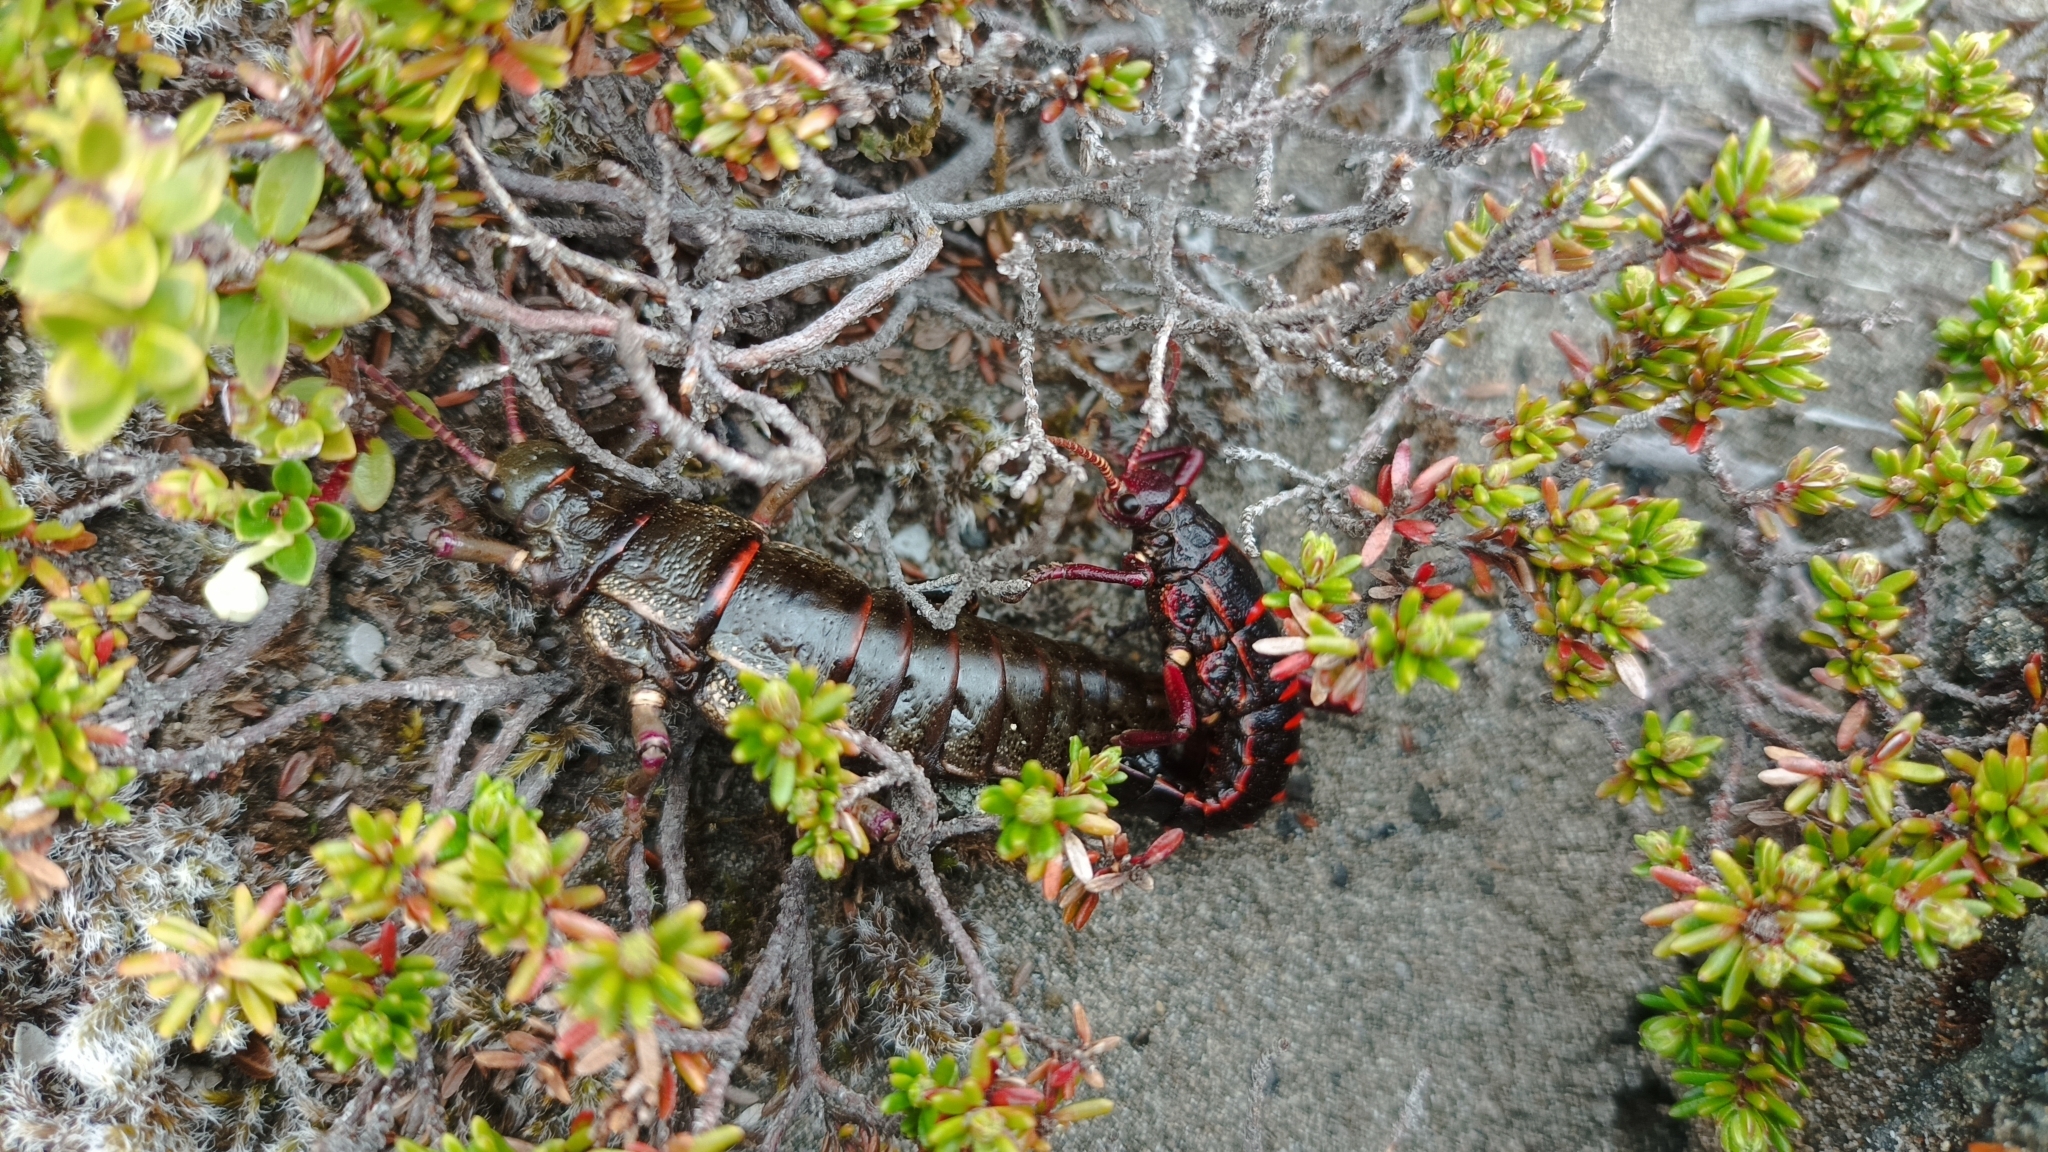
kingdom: Animalia
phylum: Arthropoda
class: Insecta
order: Phasmida
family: Agathemeridae
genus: Agathemera
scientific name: Agathemera elegans
